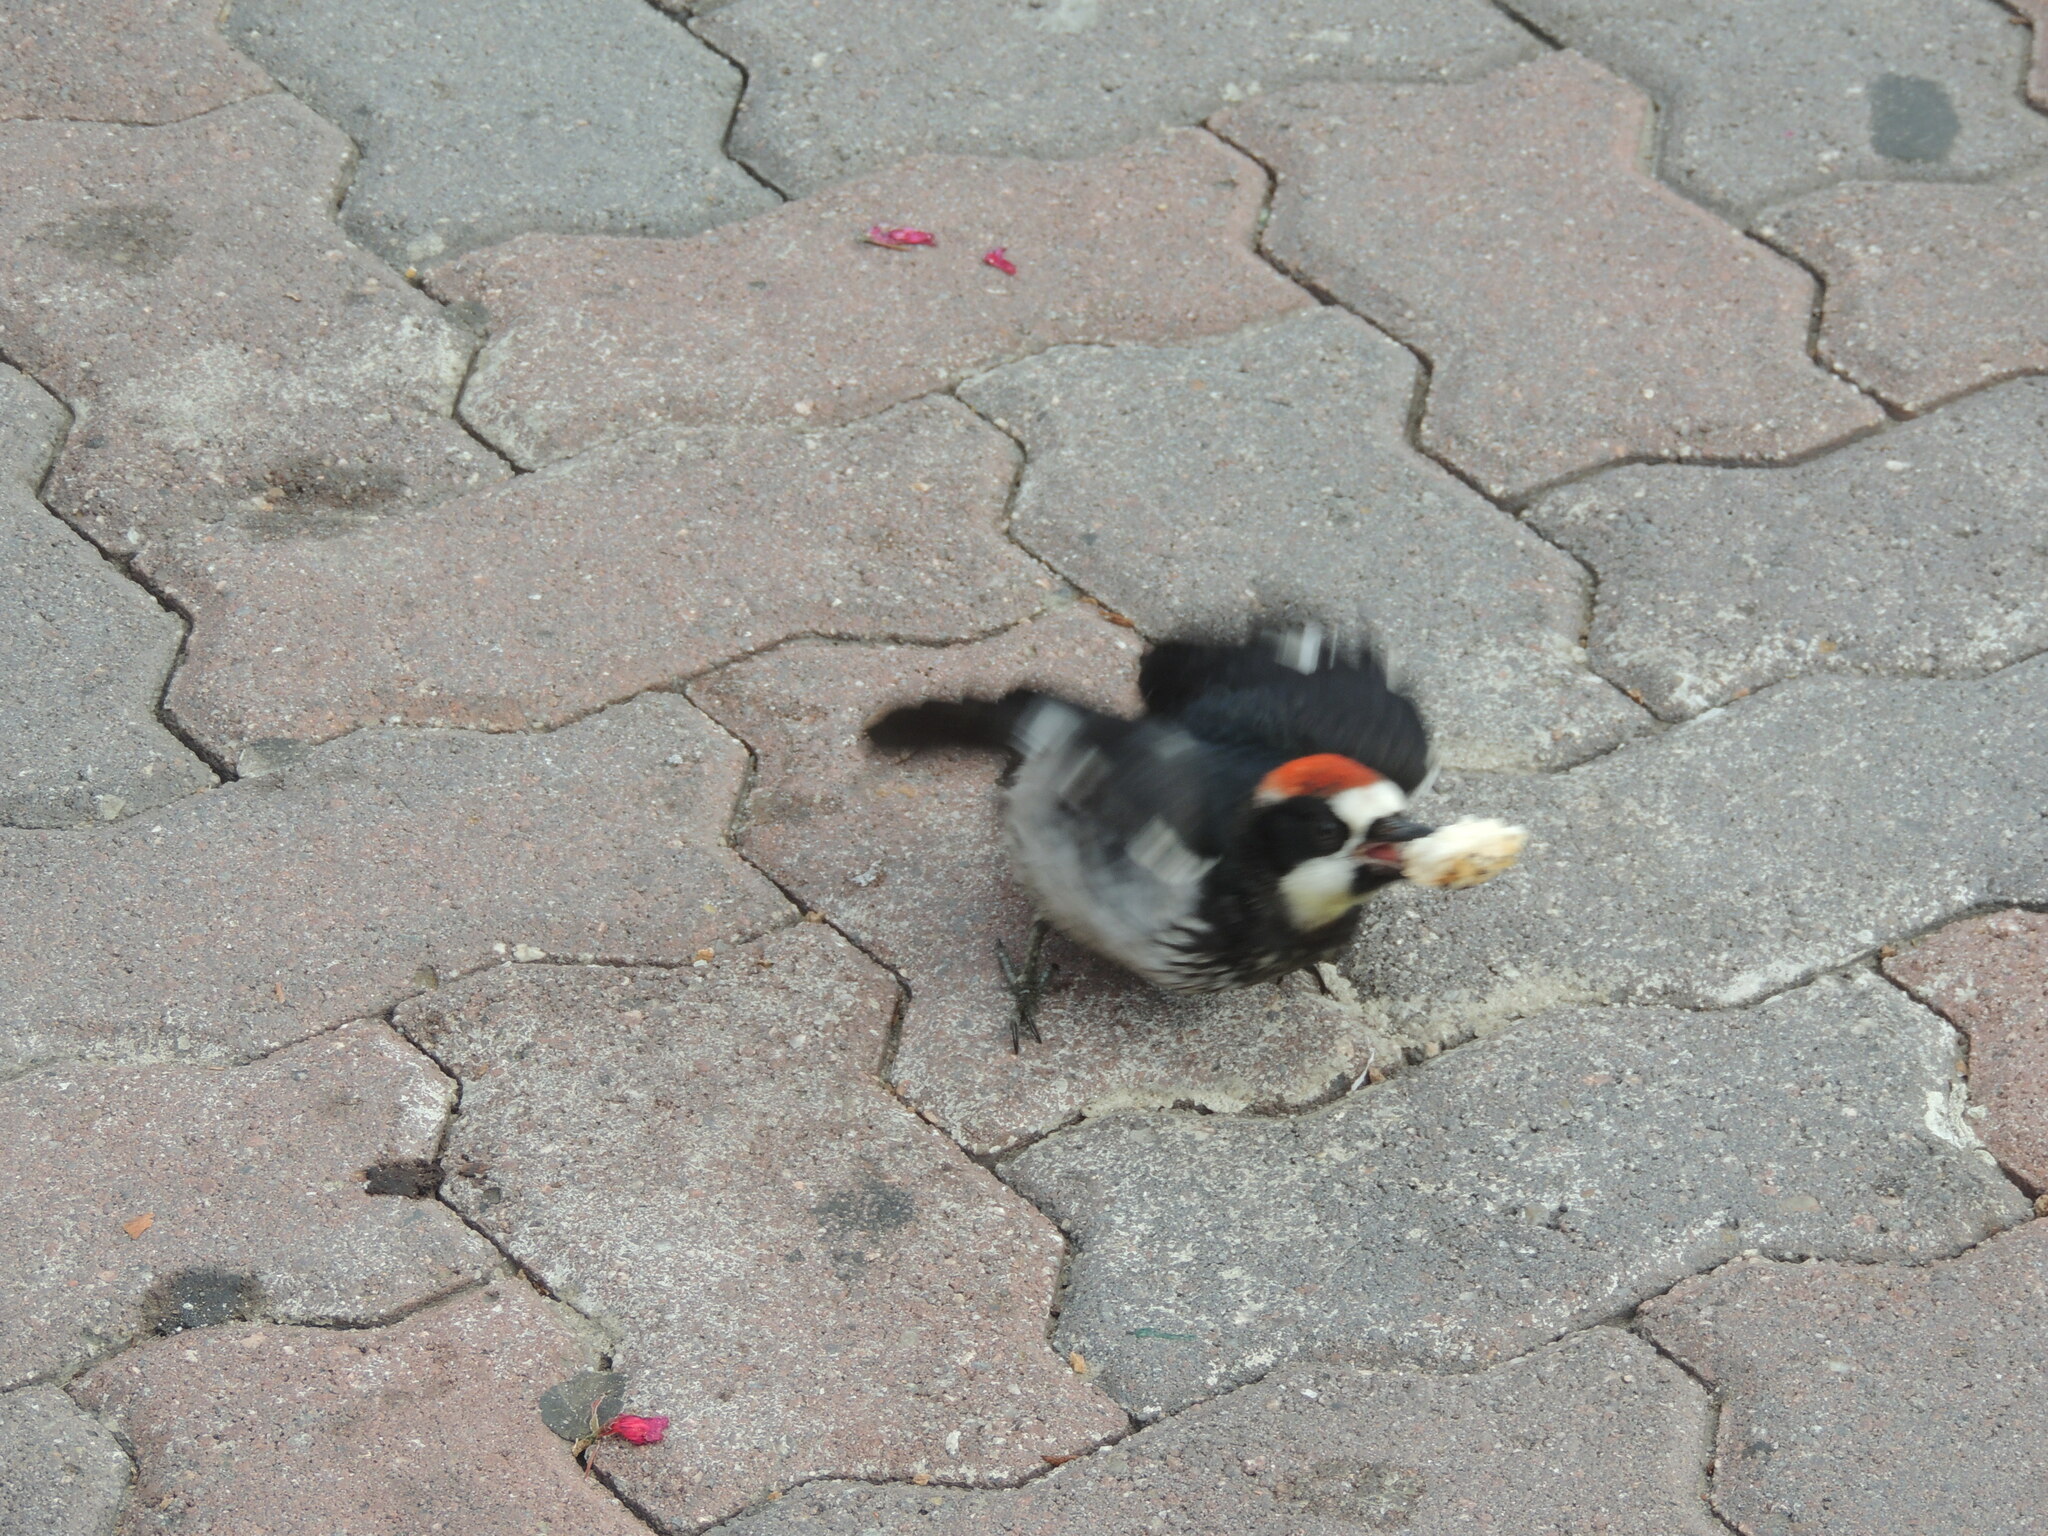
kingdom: Animalia
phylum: Chordata
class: Aves
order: Piciformes
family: Picidae
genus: Melanerpes
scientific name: Melanerpes formicivorus
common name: Acorn woodpecker
